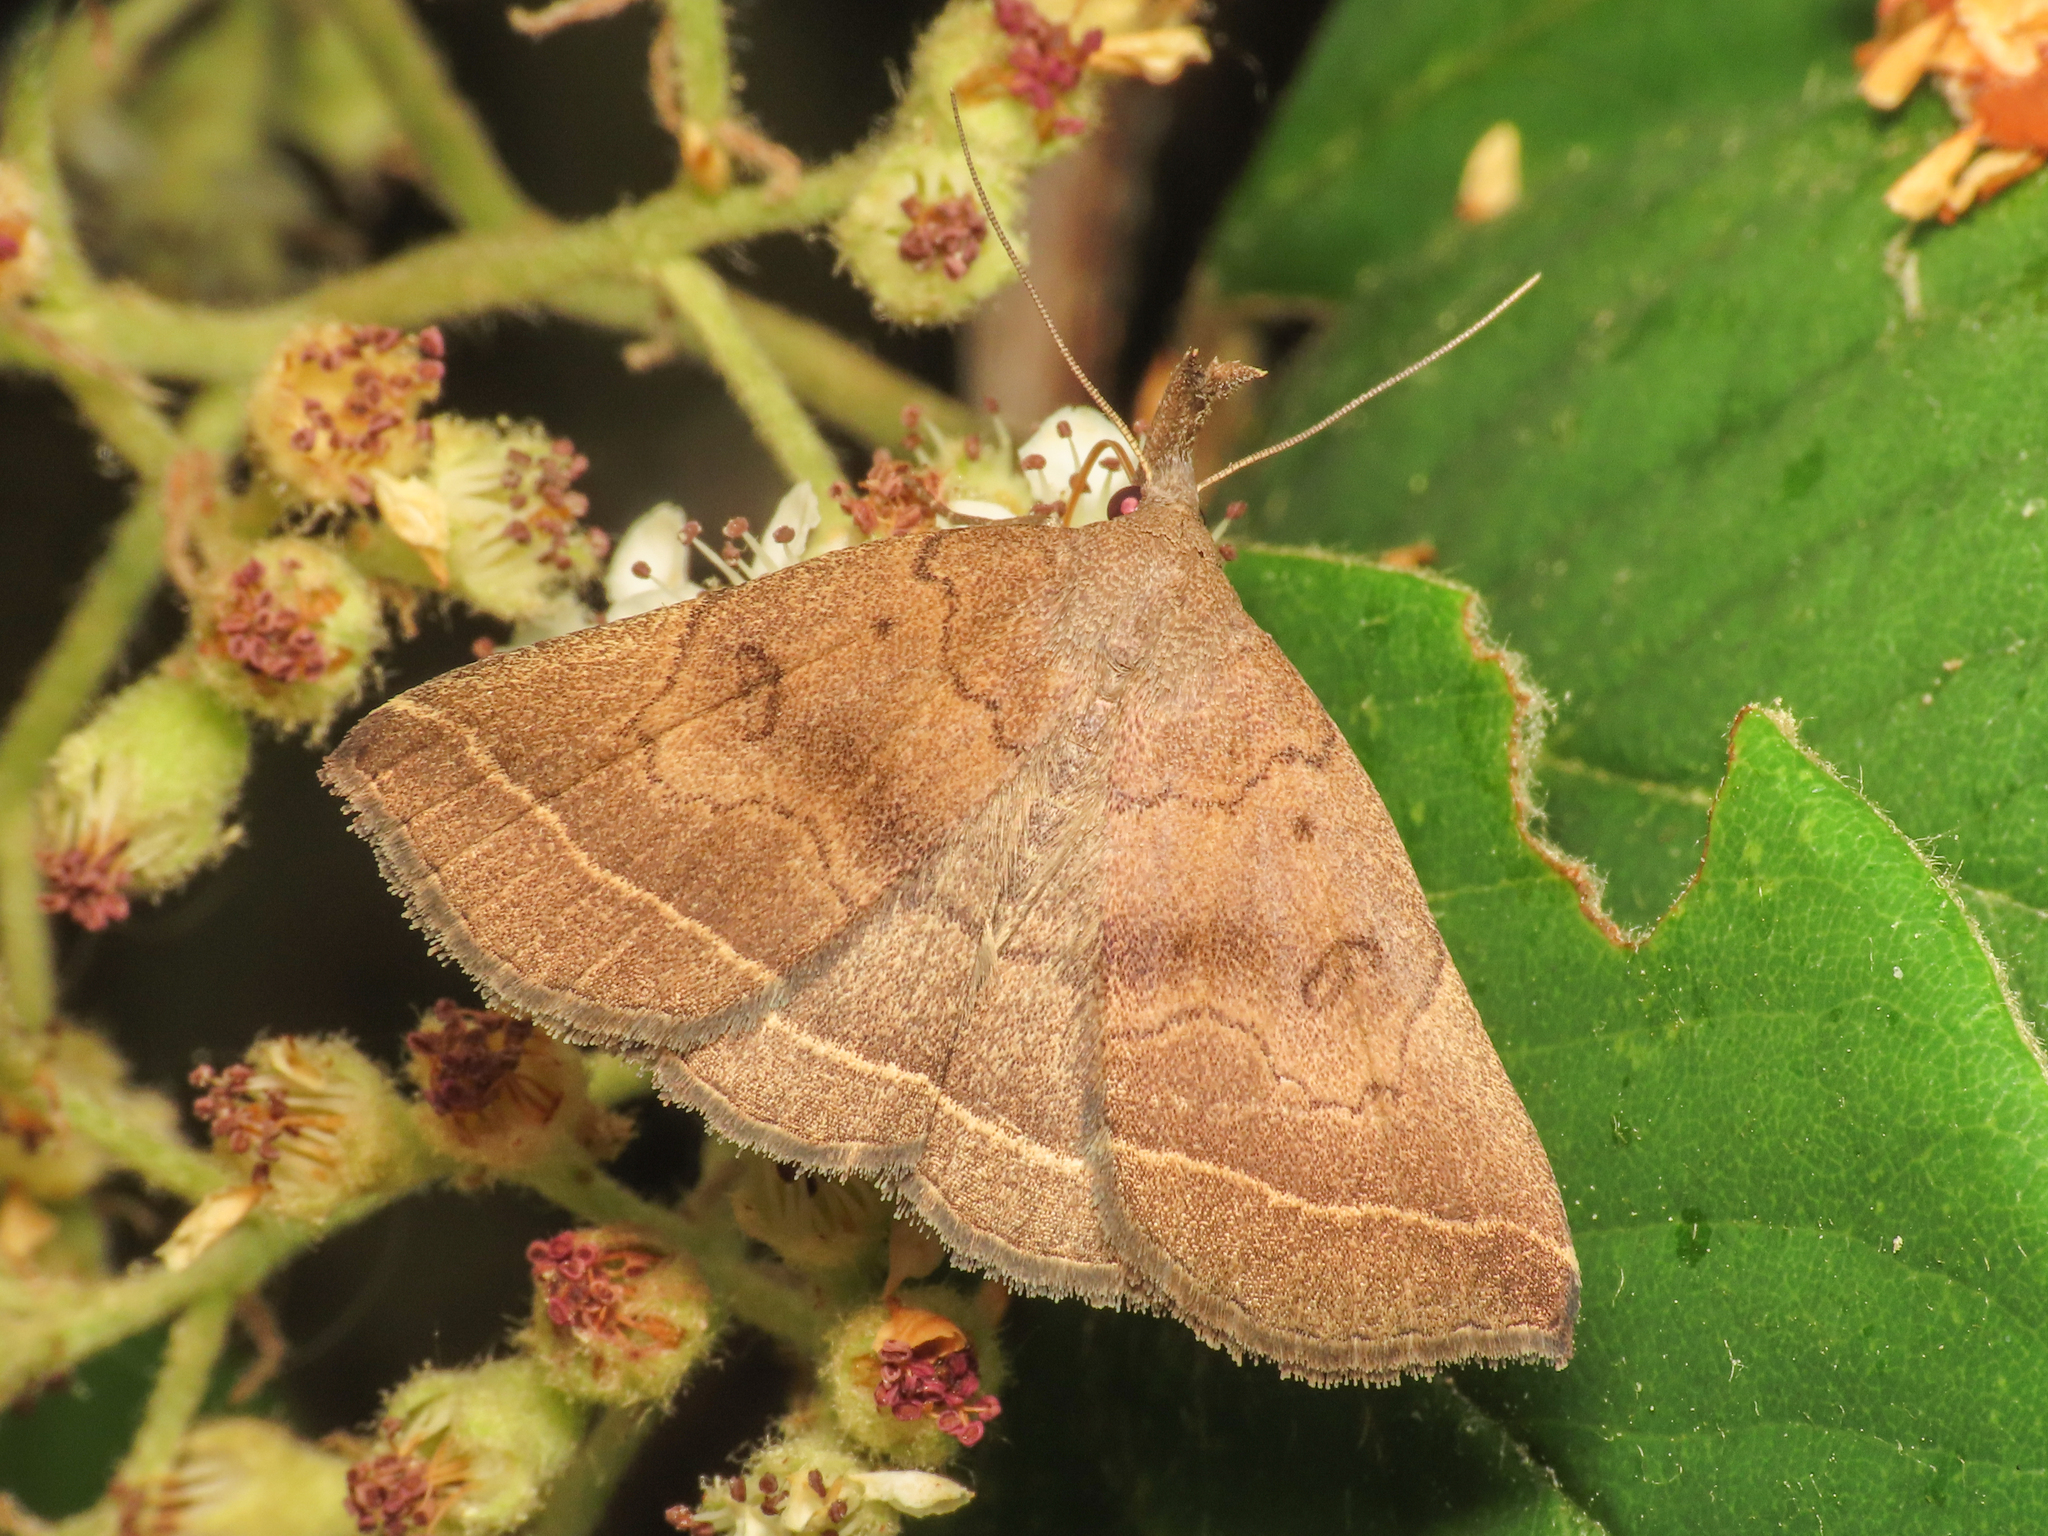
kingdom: Animalia
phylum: Arthropoda
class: Insecta
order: Lepidoptera
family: Erebidae
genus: Pechipogo
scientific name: Pechipogo plumigeralis
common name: Plumed fan-foot
